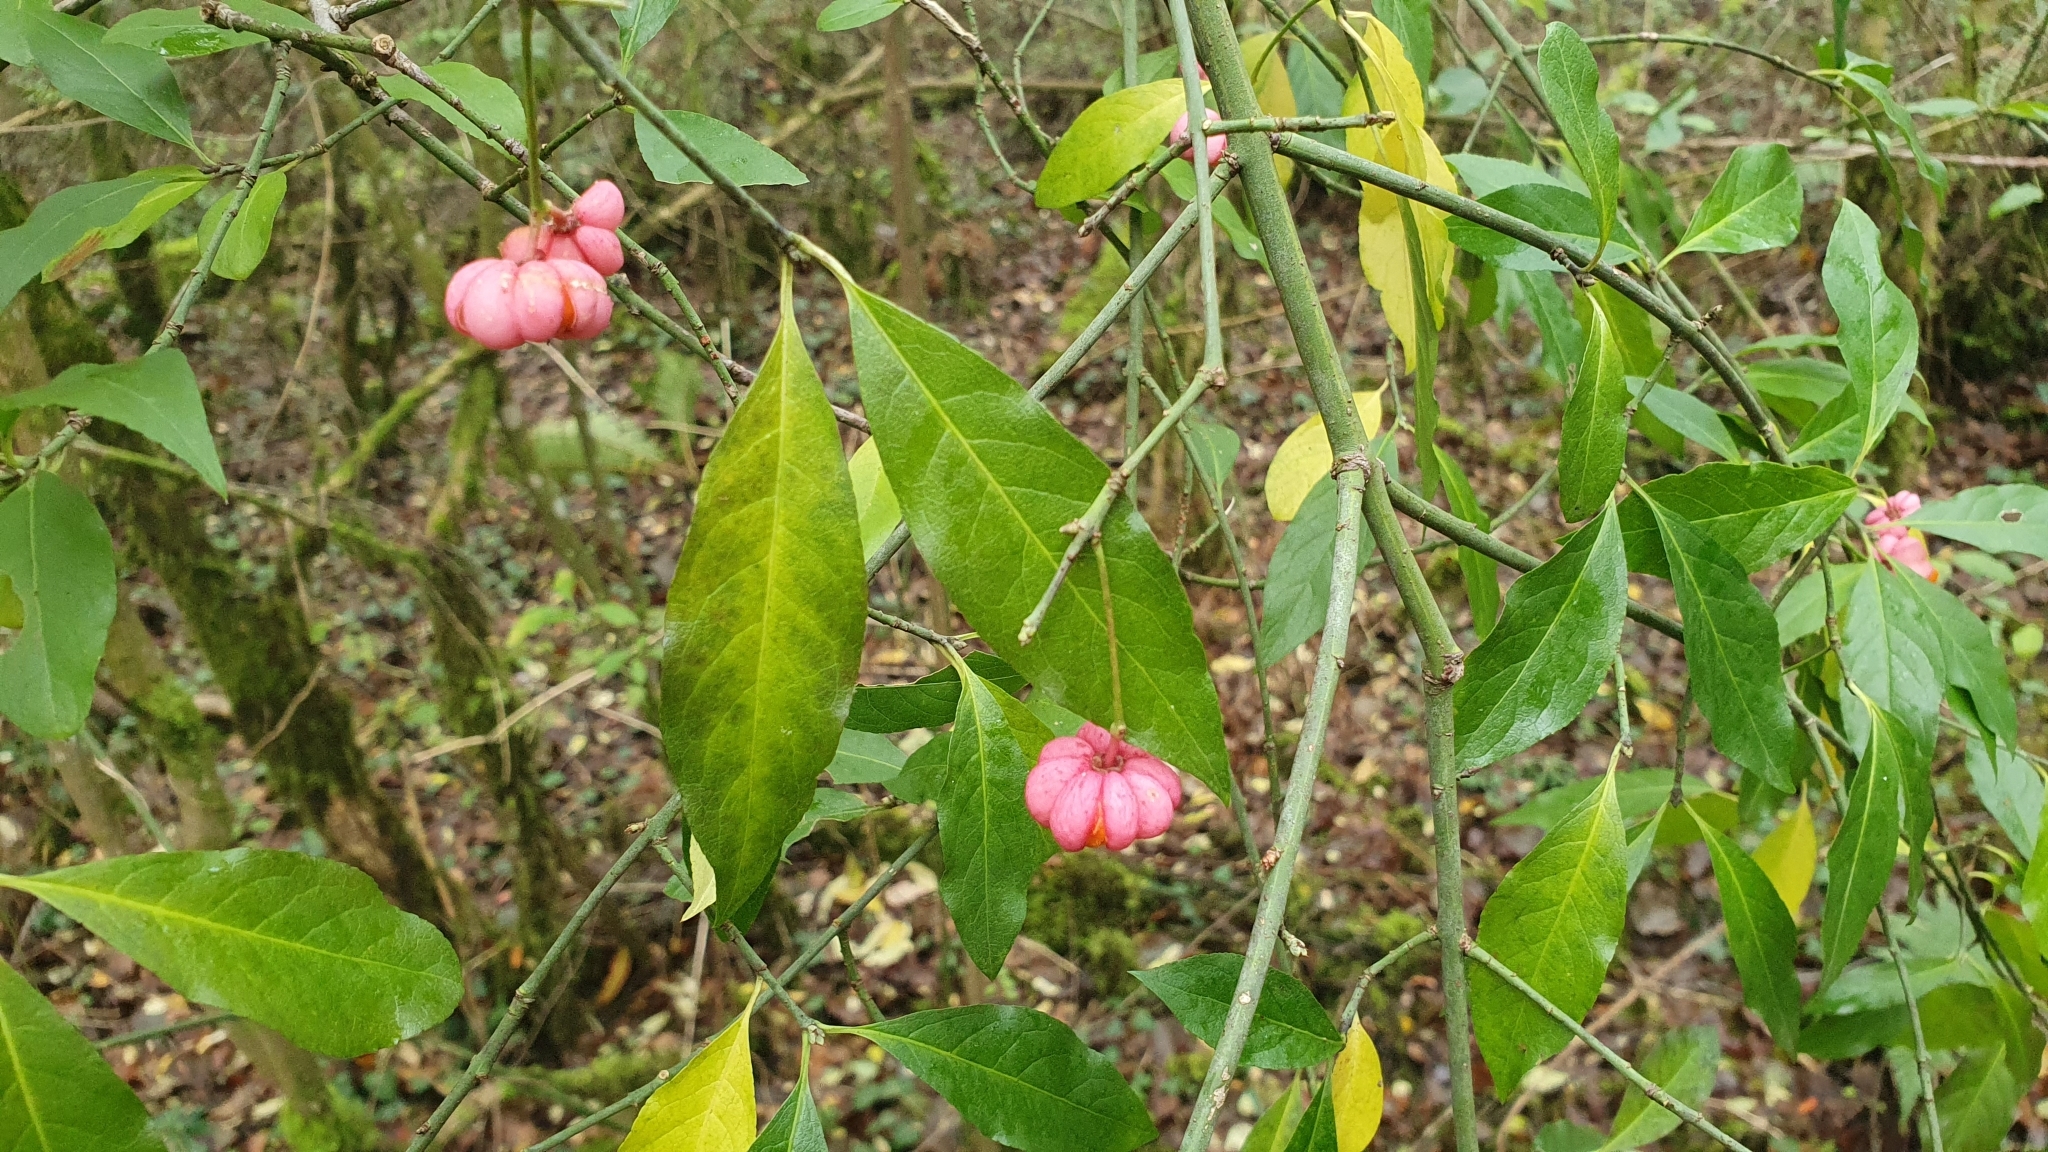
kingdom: Plantae
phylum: Tracheophyta
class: Magnoliopsida
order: Celastrales
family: Celastraceae
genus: Euonymus
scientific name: Euonymus europaeus
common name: Spindle
